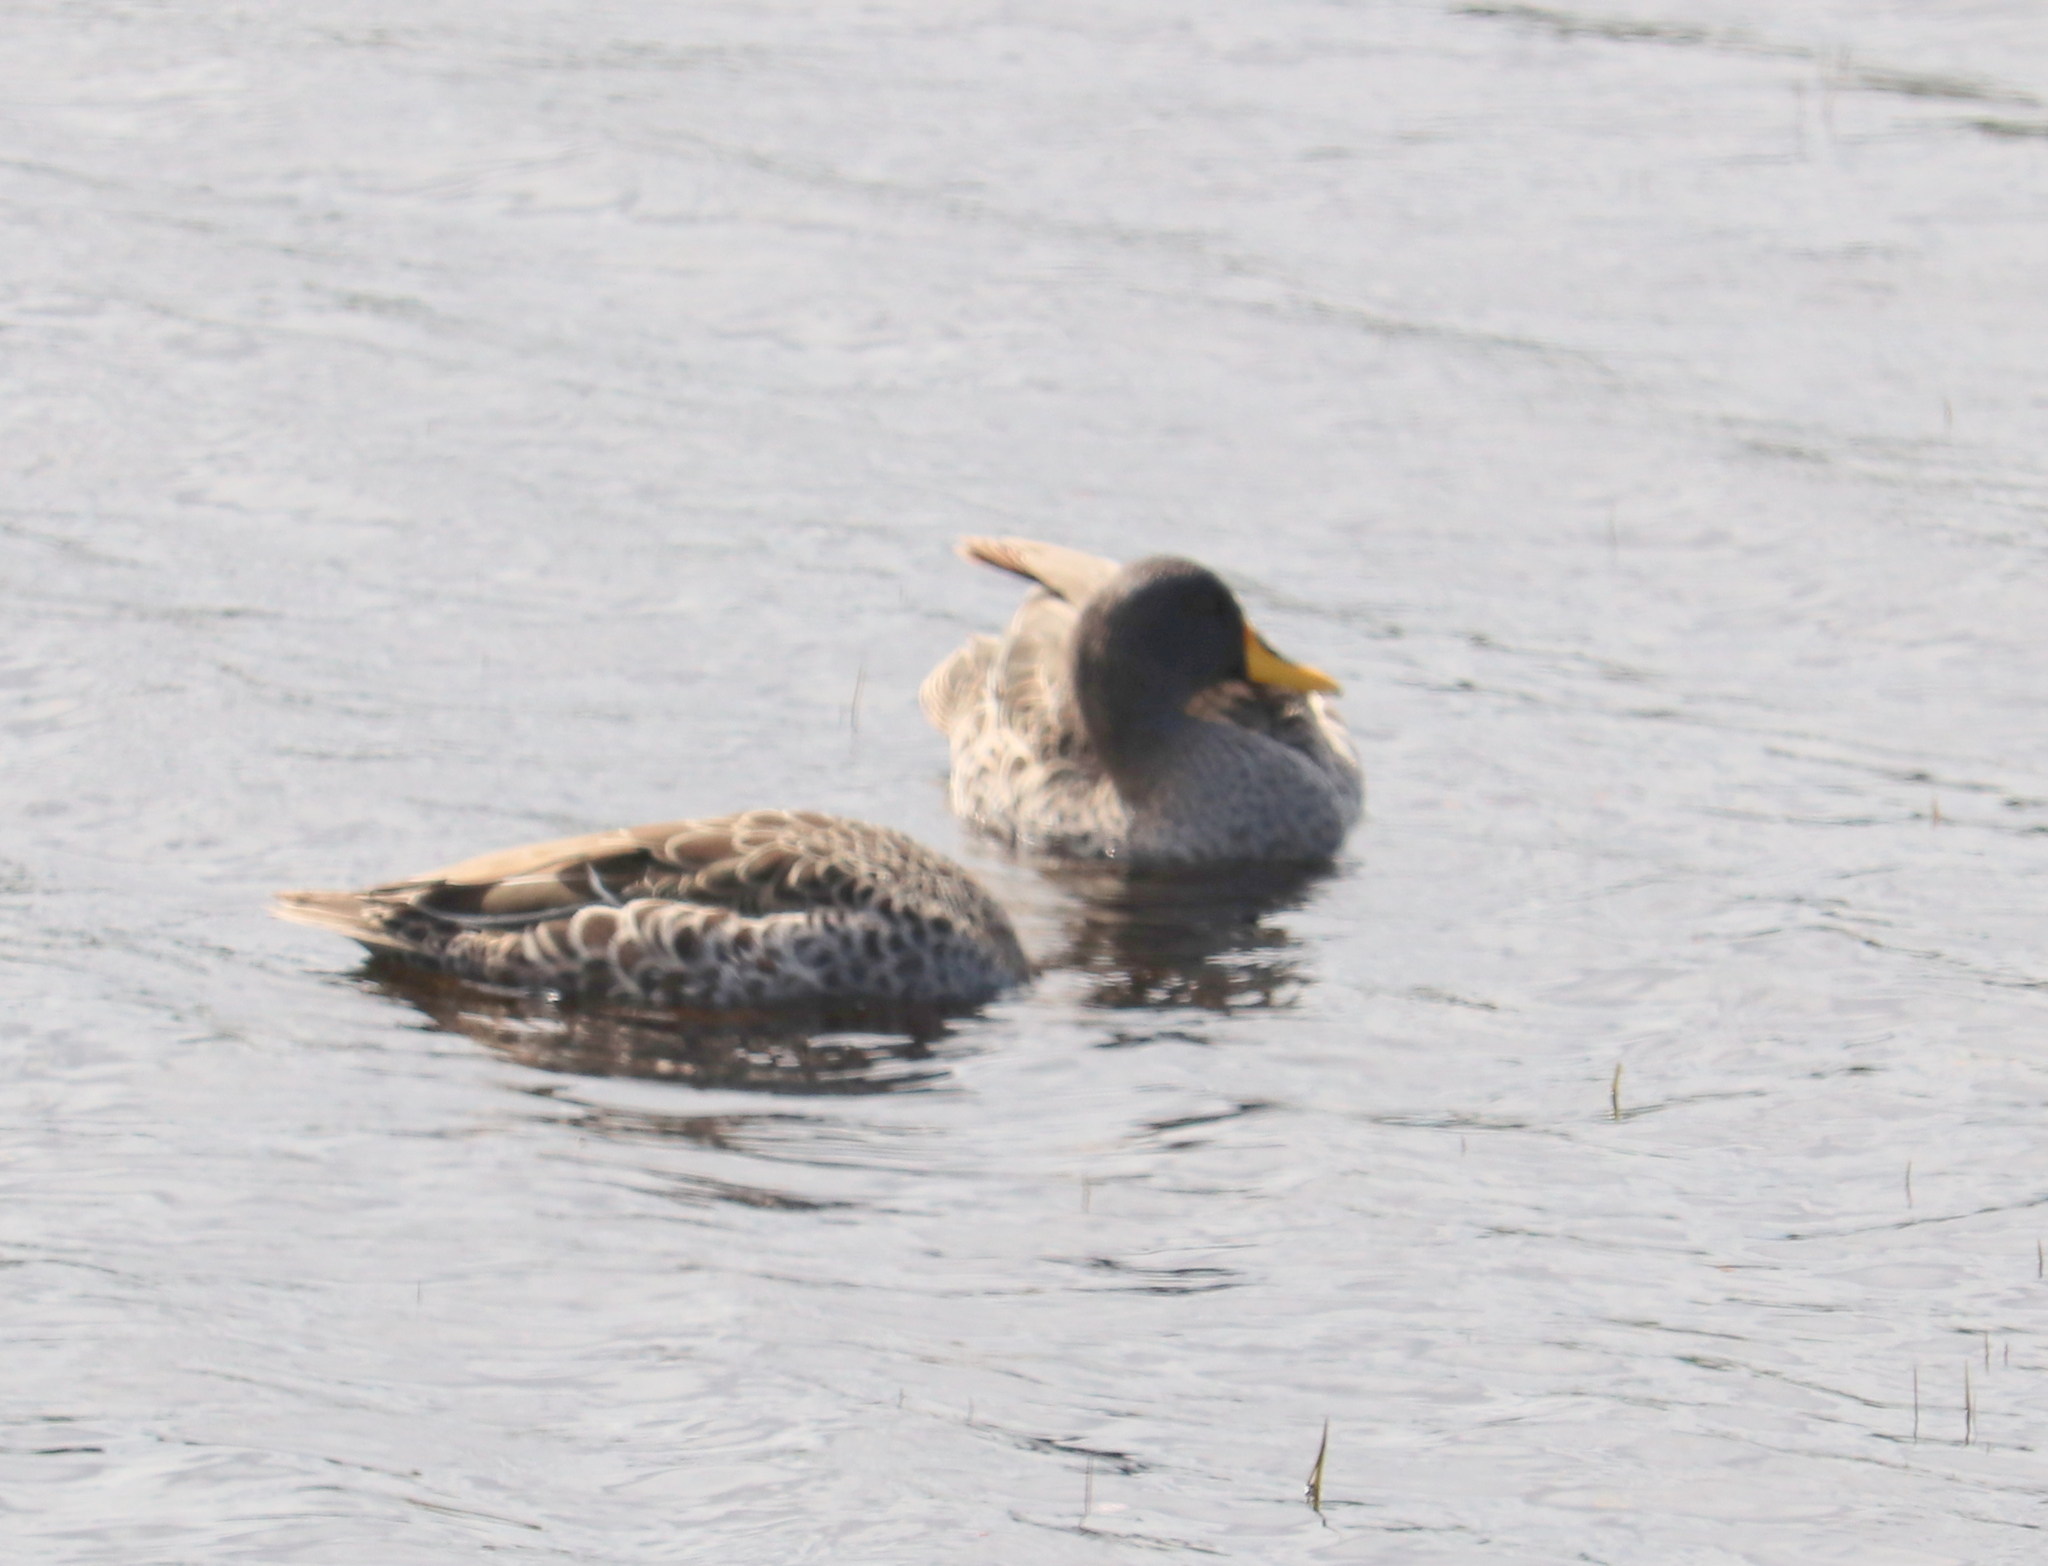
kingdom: Animalia
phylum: Chordata
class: Aves
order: Anseriformes
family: Anatidae
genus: Anas
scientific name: Anas undulata
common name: Yellow-billed duck
